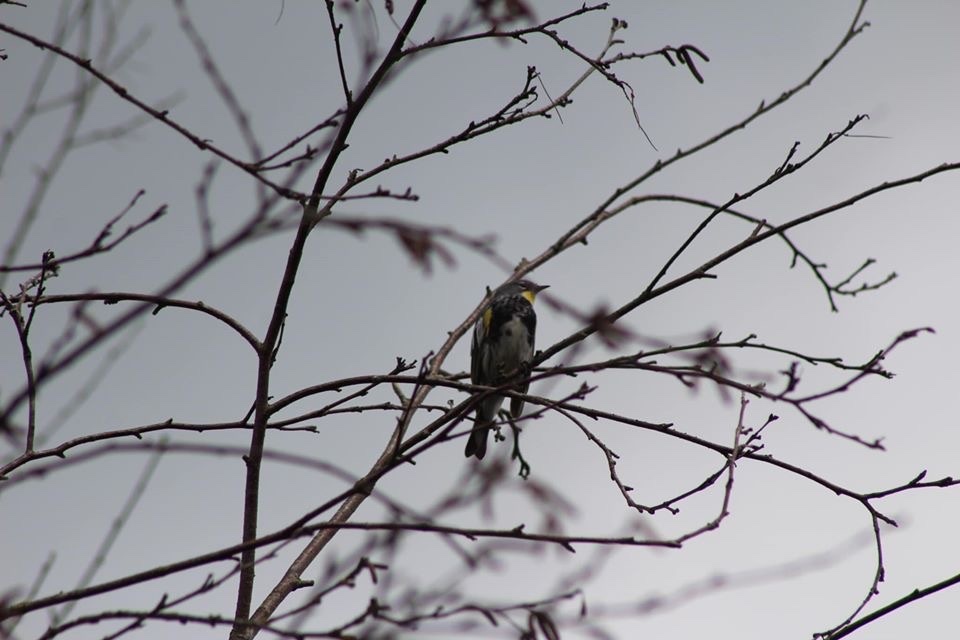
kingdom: Animalia
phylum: Chordata
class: Aves
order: Passeriformes
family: Parulidae
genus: Setophaga
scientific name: Setophaga coronata
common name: Myrtle warbler
